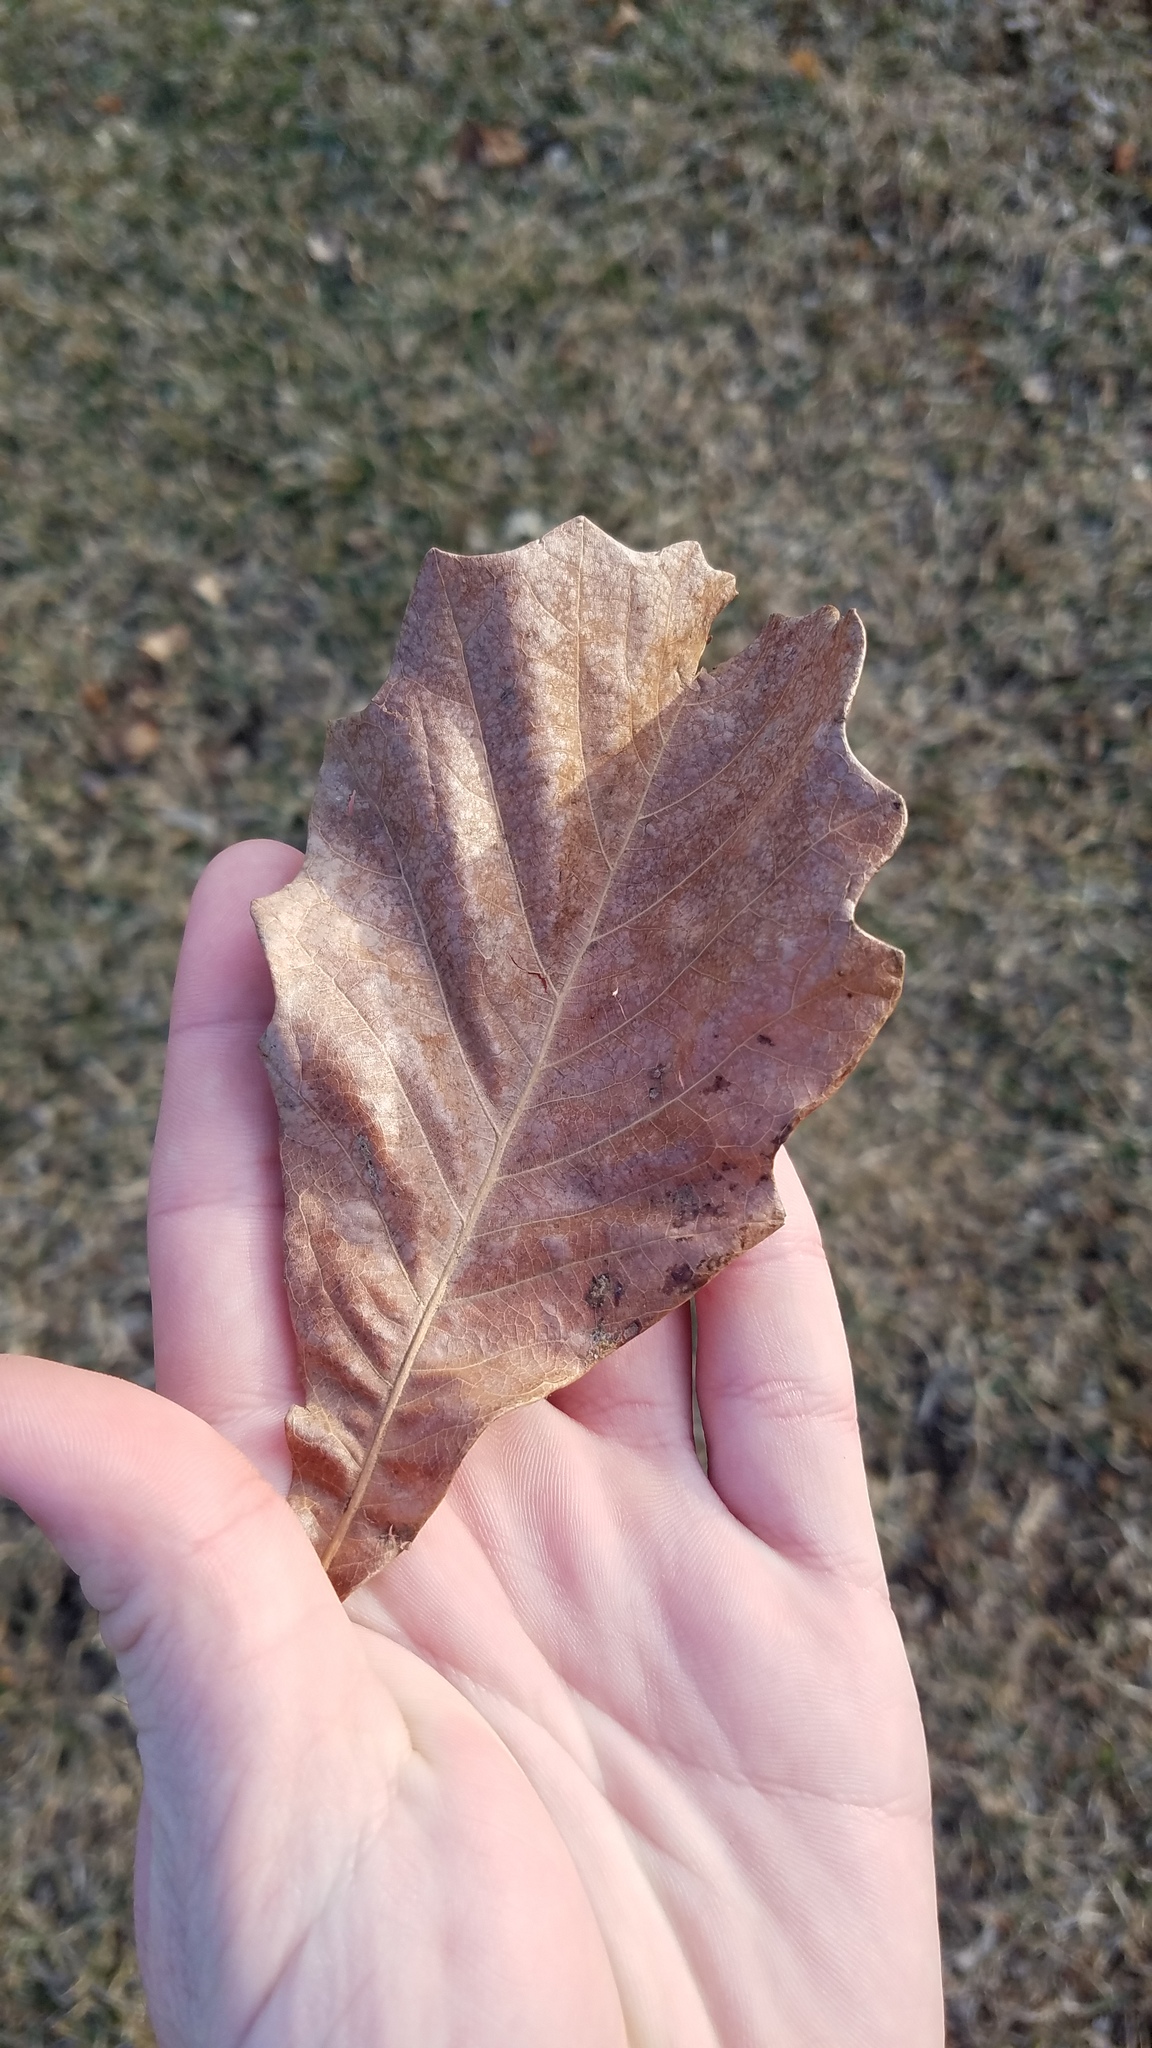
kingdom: Plantae
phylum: Tracheophyta
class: Magnoliopsida
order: Fagales
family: Fagaceae
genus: Quercus
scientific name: Quercus bicolor
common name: Swamp white oak
